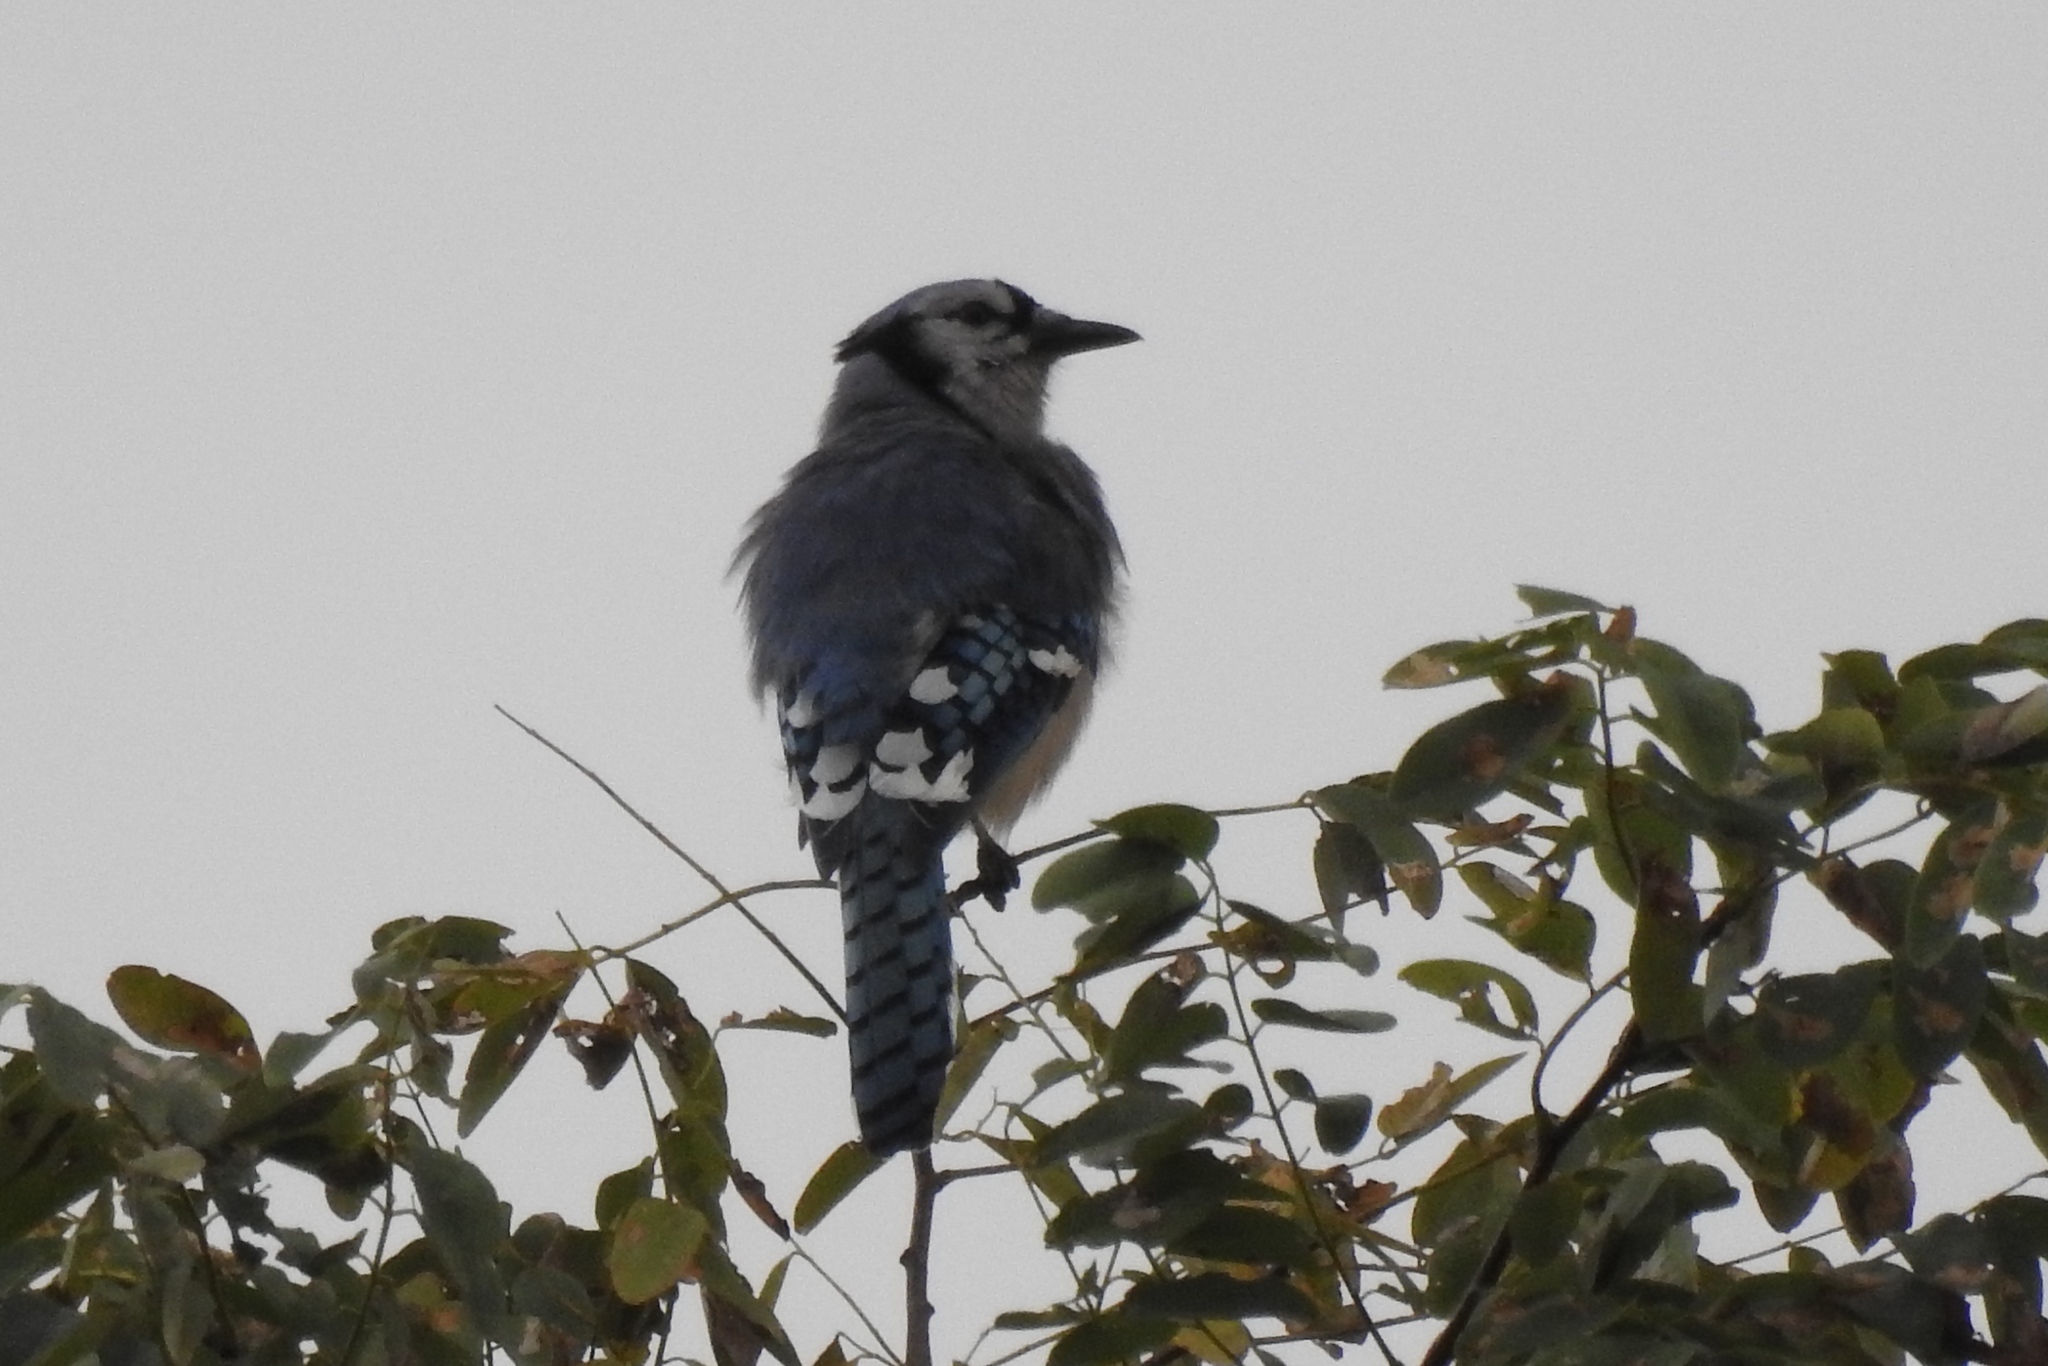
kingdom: Animalia
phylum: Chordata
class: Aves
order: Passeriformes
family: Corvidae
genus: Cyanocitta
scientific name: Cyanocitta cristata
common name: Blue jay
